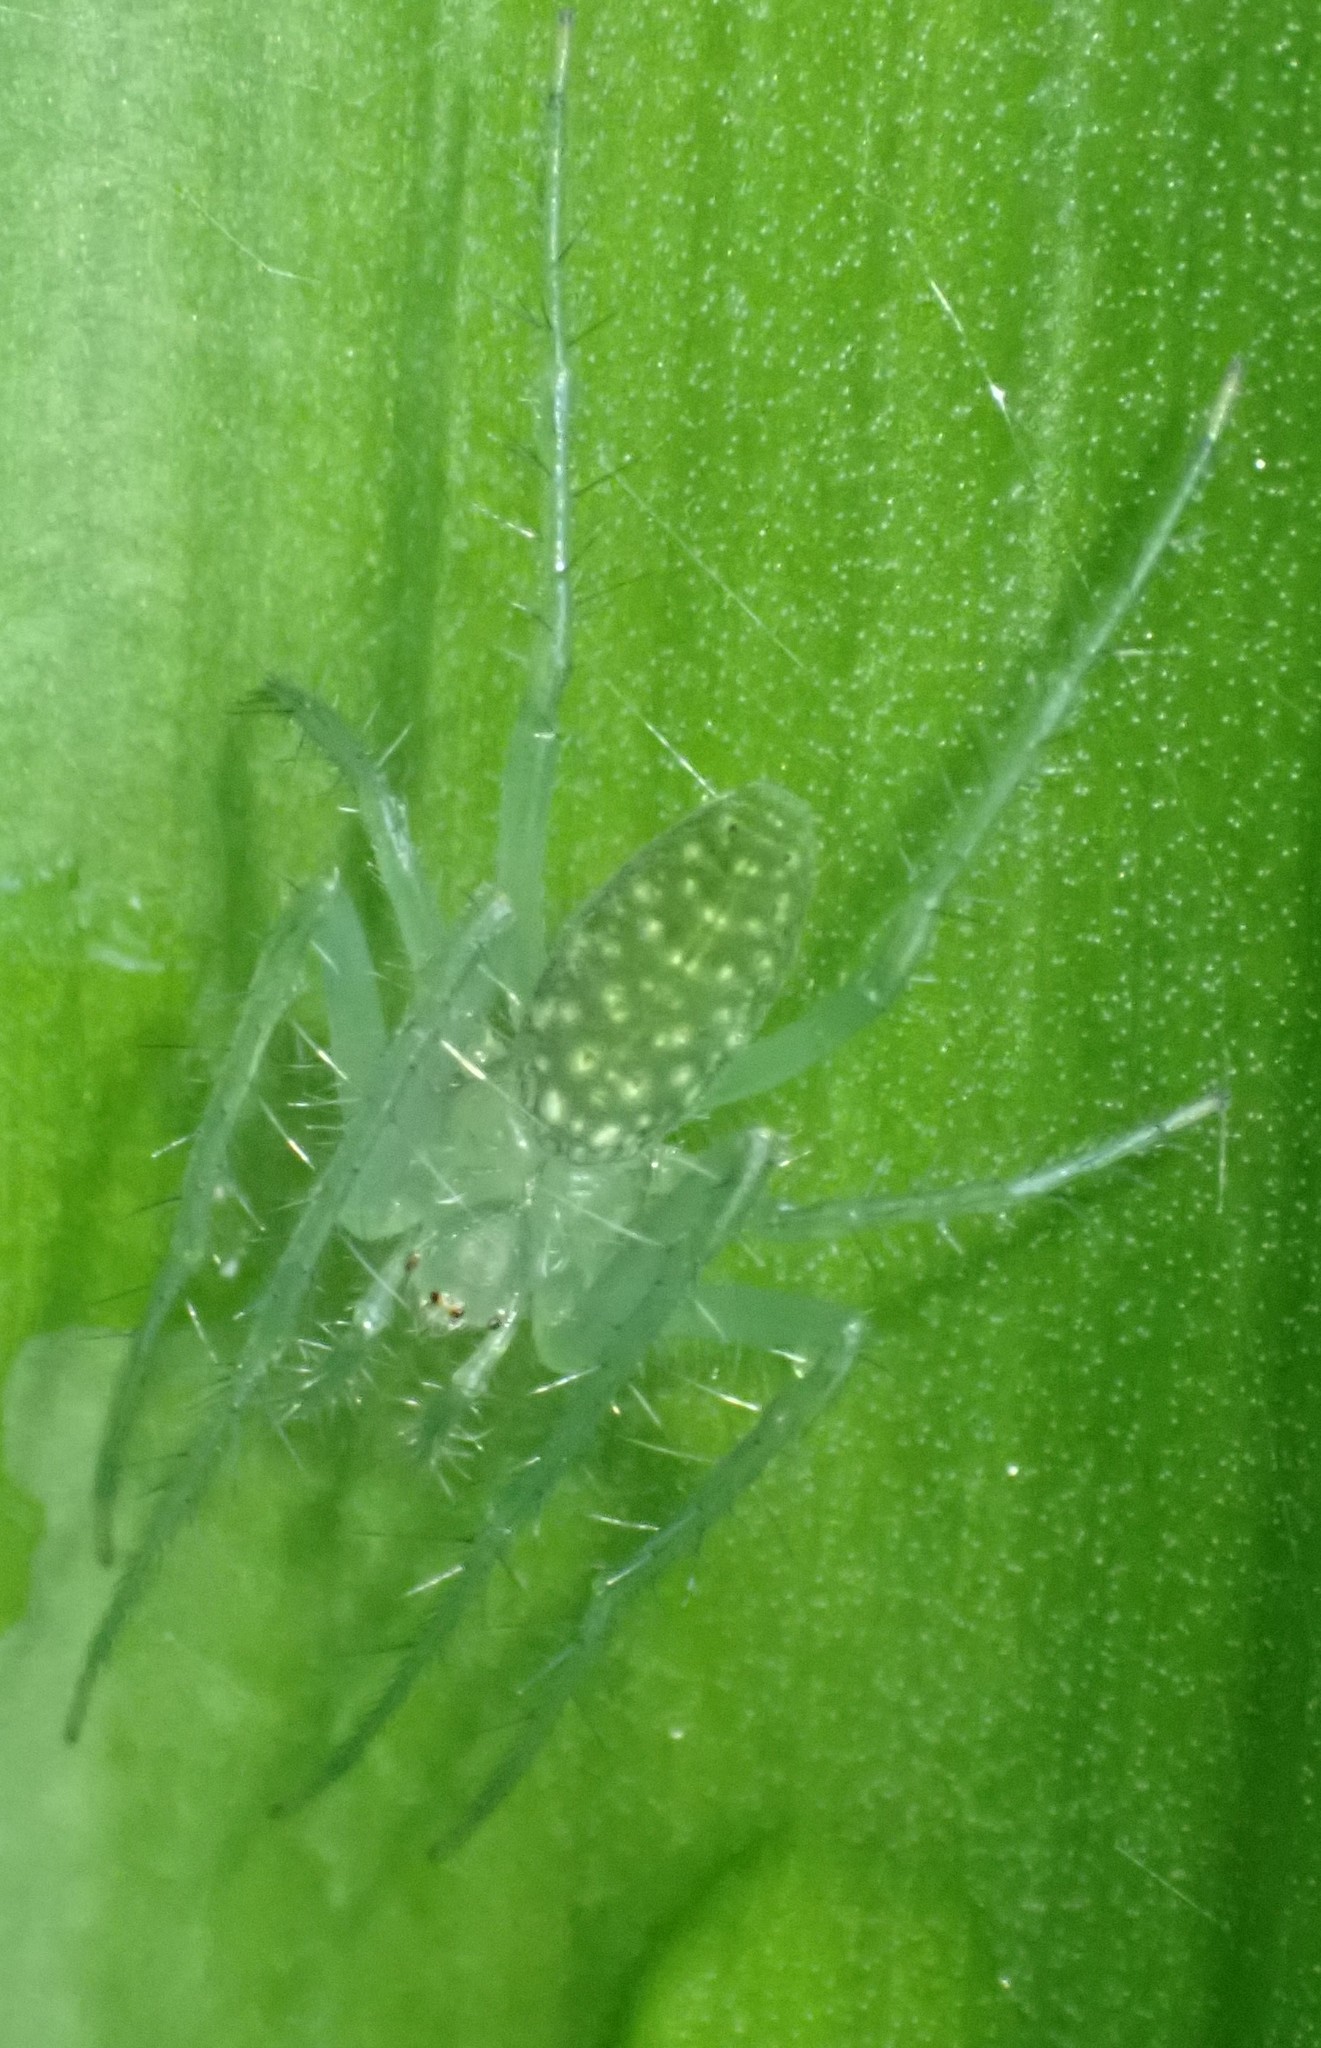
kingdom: Animalia
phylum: Arthropoda
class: Arachnida
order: Araneae
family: Araneidae
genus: Araneus
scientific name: Araneus talipedatus
